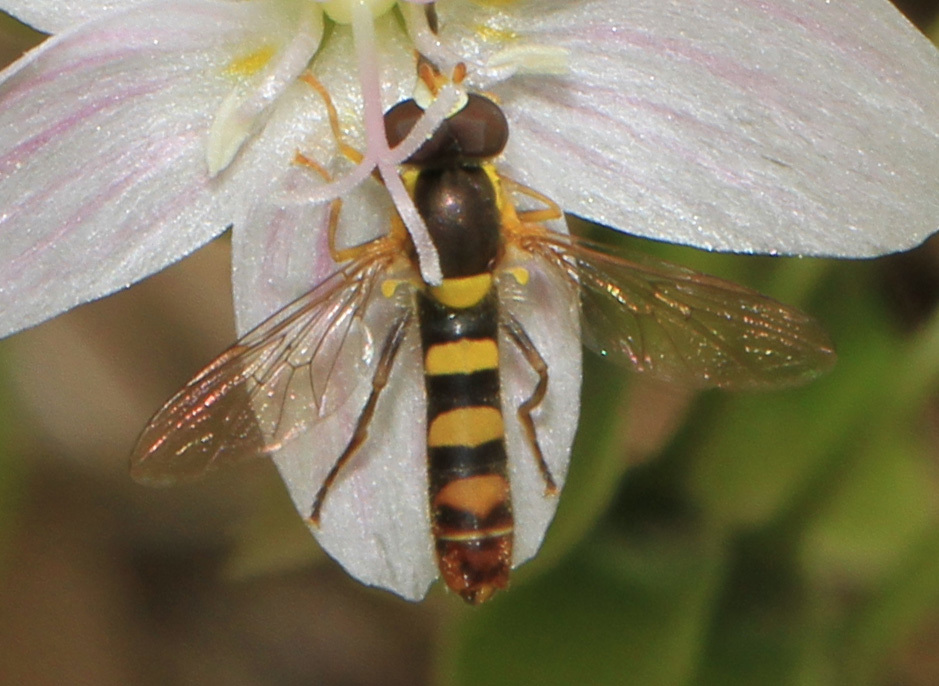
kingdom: Animalia
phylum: Arthropoda
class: Insecta
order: Diptera
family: Syrphidae
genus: Sphaerophoria
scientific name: Sphaerophoria contigua
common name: Tufted globetail
